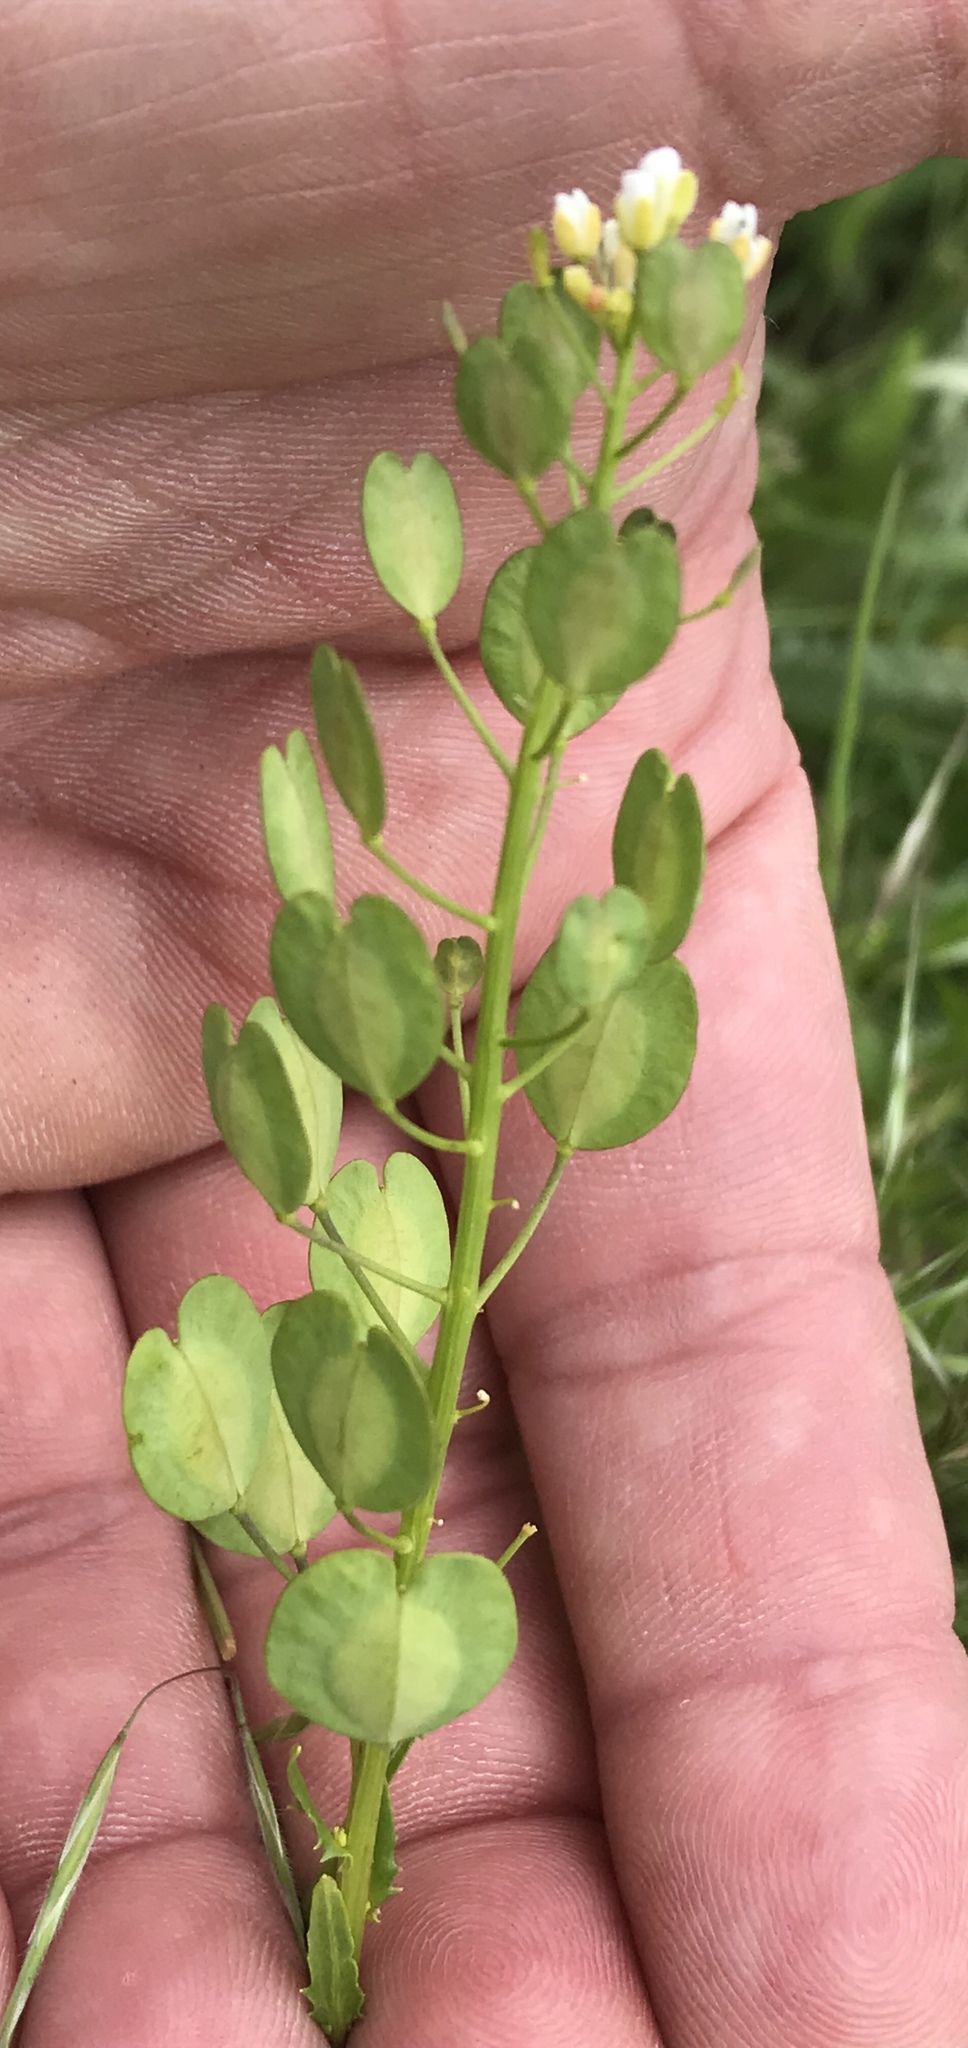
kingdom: Plantae
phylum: Tracheophyta
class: Magnoliopsida
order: Brassicales
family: Brassicaceae
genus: Thlaspi
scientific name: Thlaspi arvense
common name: Field pennycress
